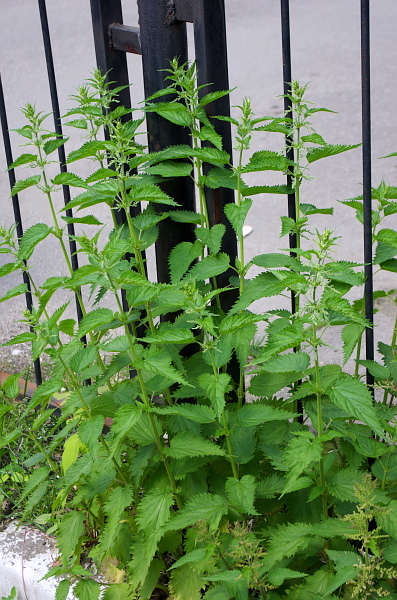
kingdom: Plantae
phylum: Tracheophyta
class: Magnoliopsida
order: Rosales
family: Urticaceae
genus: Urtica
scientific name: Urtica dioica
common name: Common nettle
